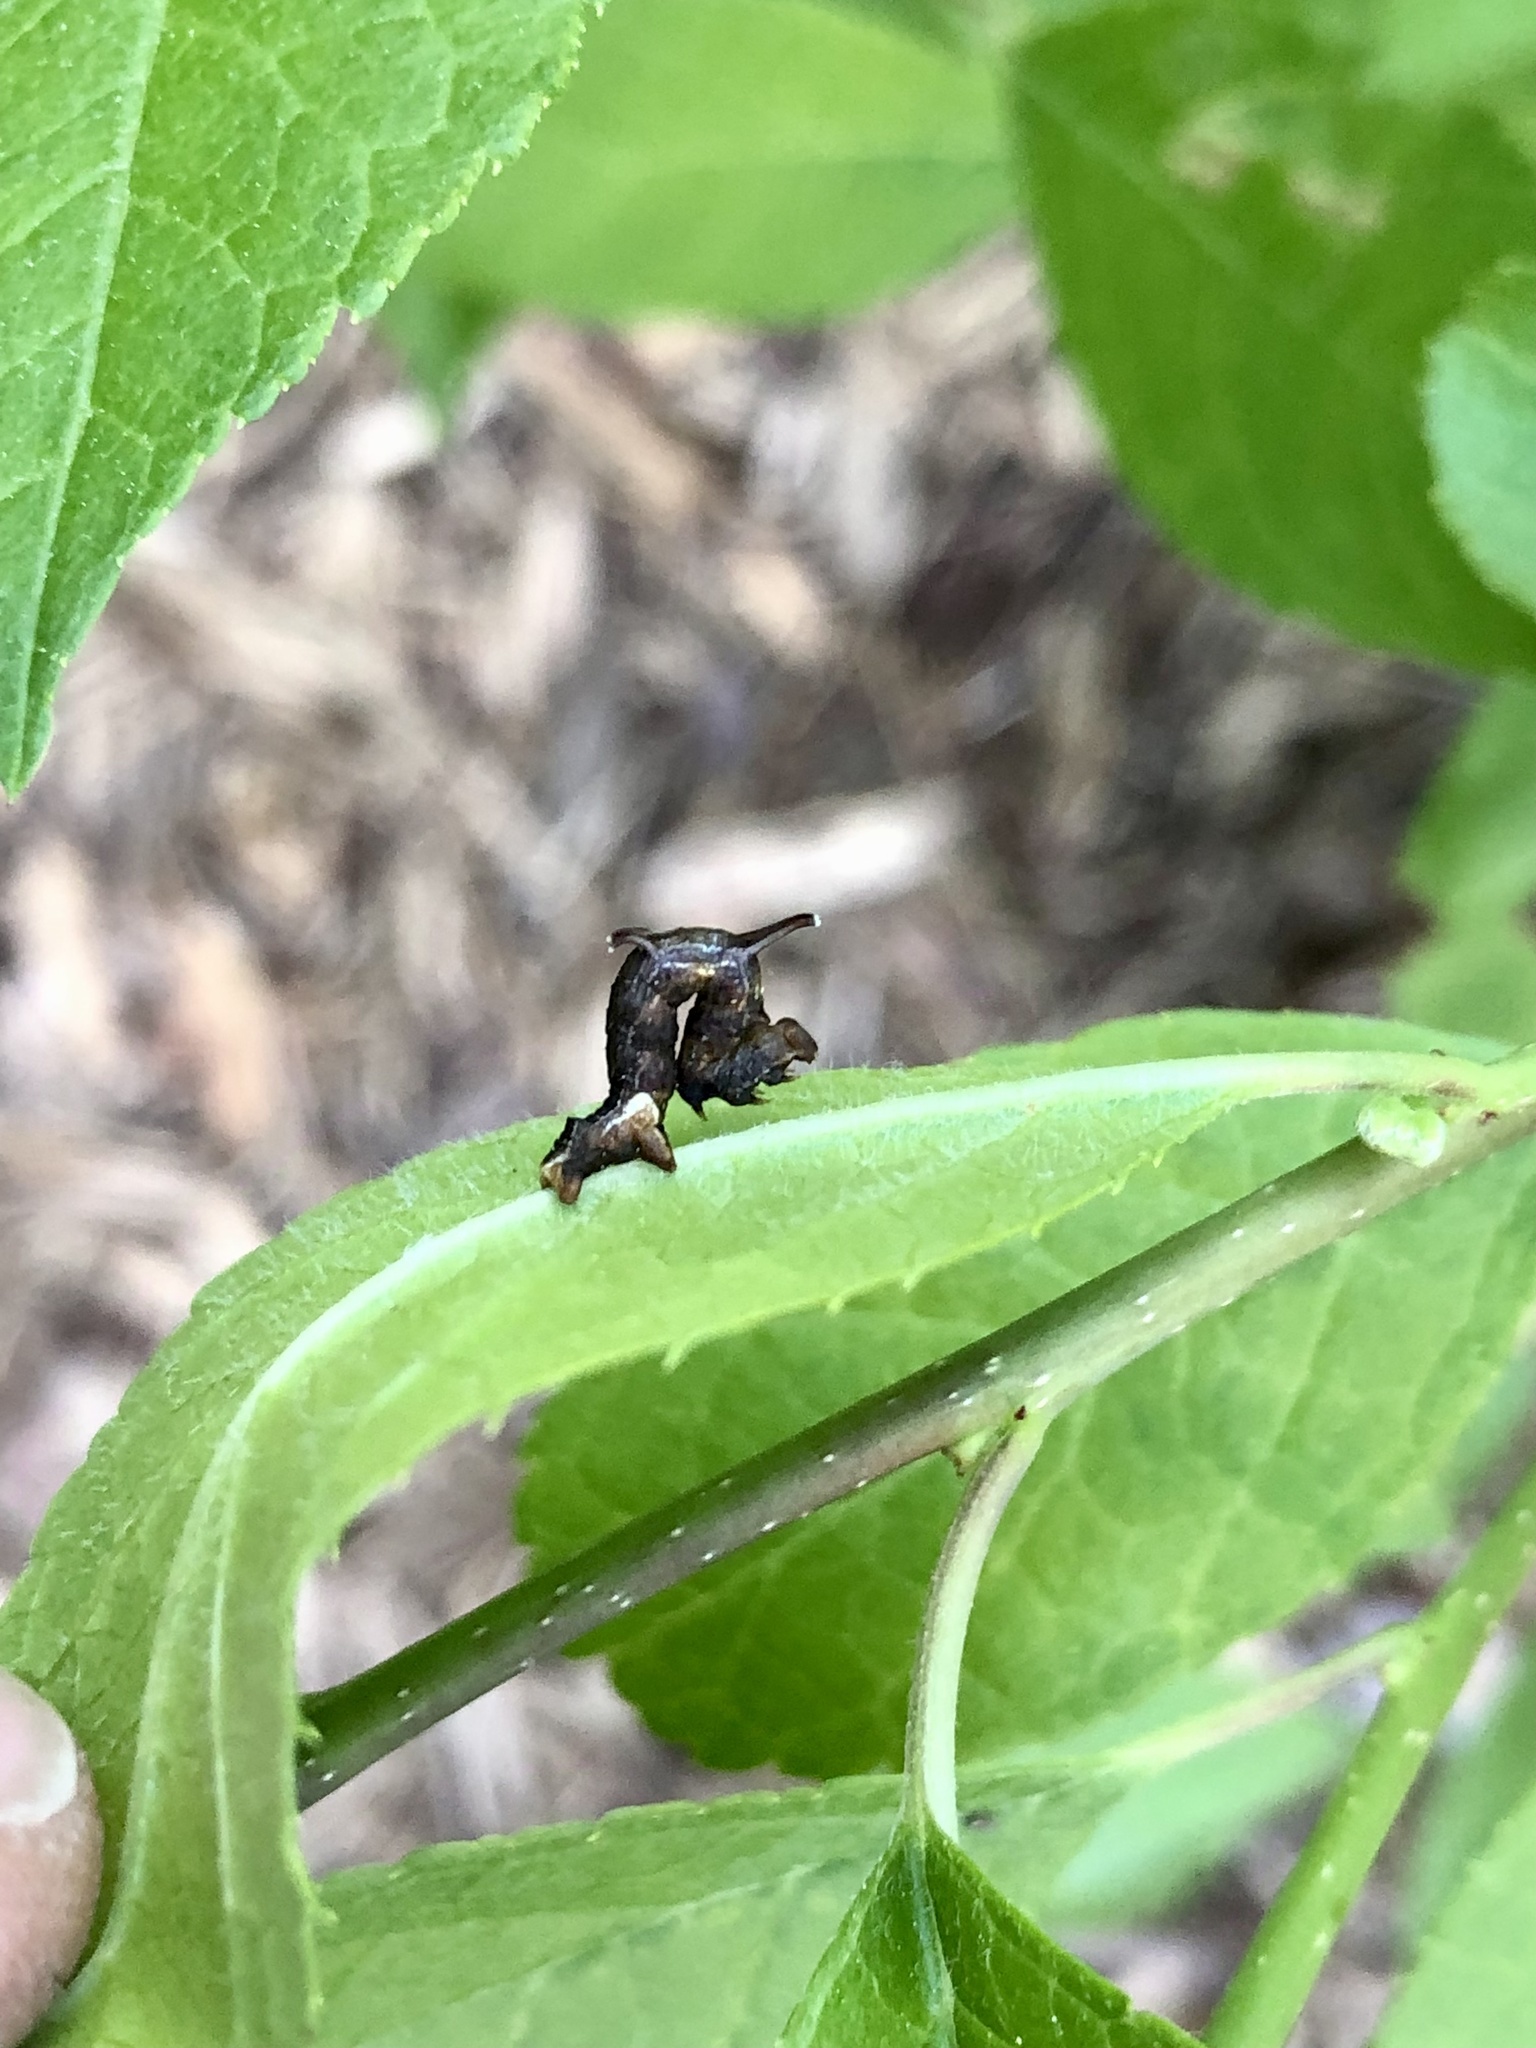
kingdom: Animalia
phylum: Arthropoda
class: Insecta
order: Lepidoptera
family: Geometridae
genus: Nematocampa
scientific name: Nematocampa resistaria
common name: Horned spanworm moth
